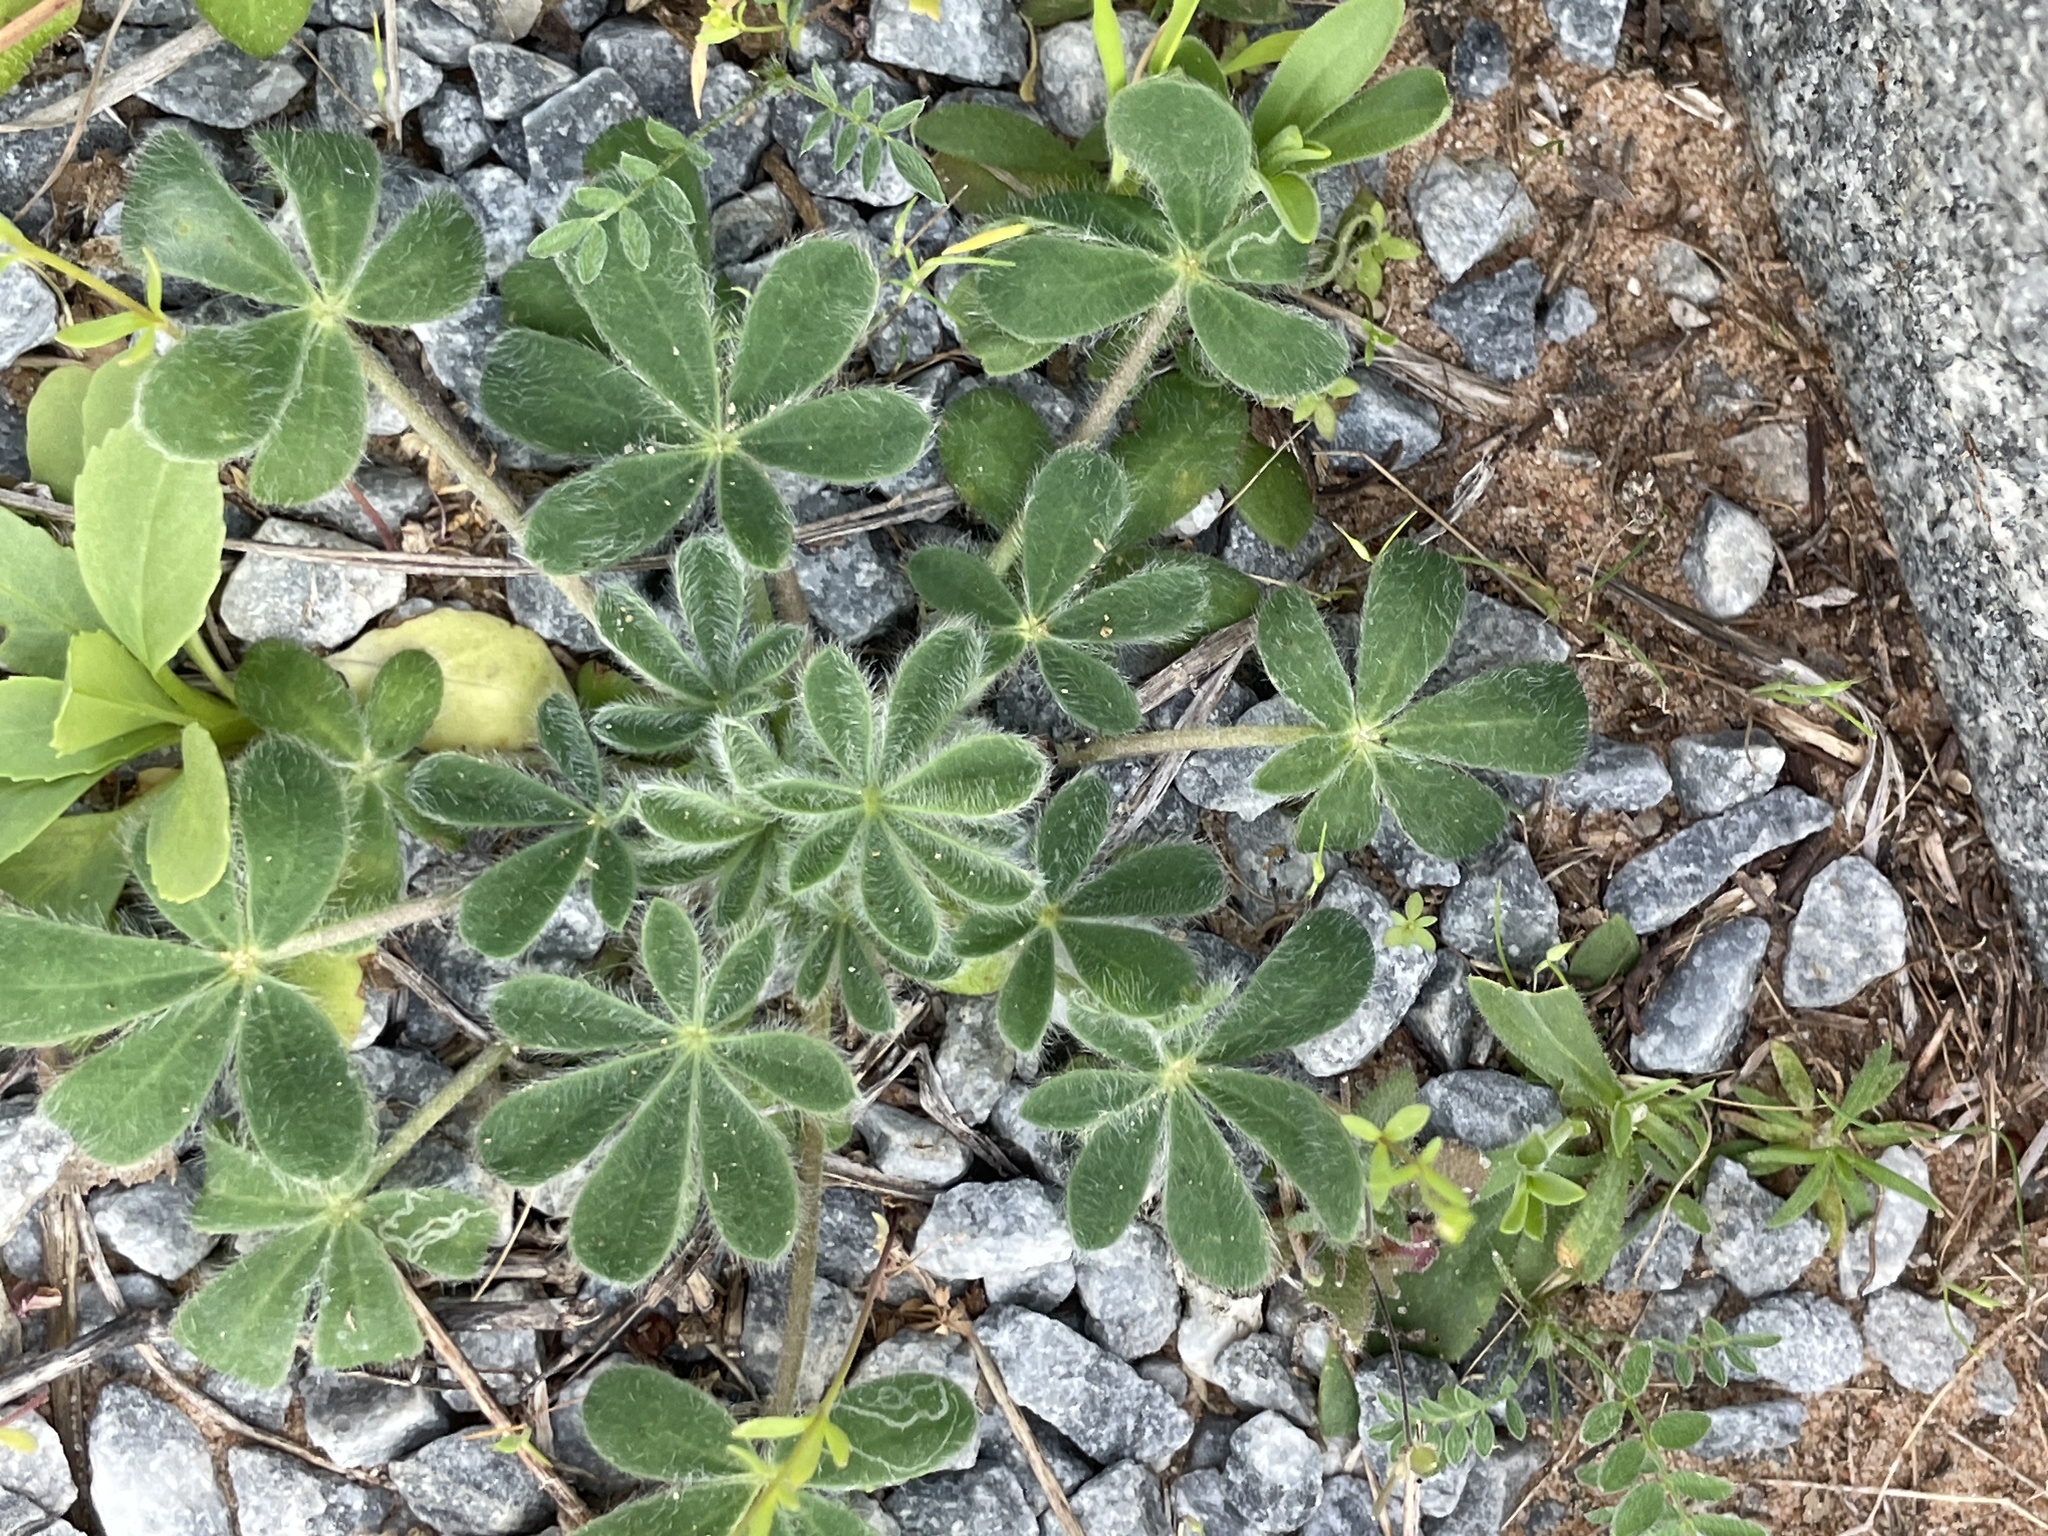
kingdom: Plantae
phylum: Tracheophyta
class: Magnoliopsida
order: Fabales
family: Fabaceae
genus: Lupinus
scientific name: Lupinus subcarnosus
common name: Texas bluebonnet
